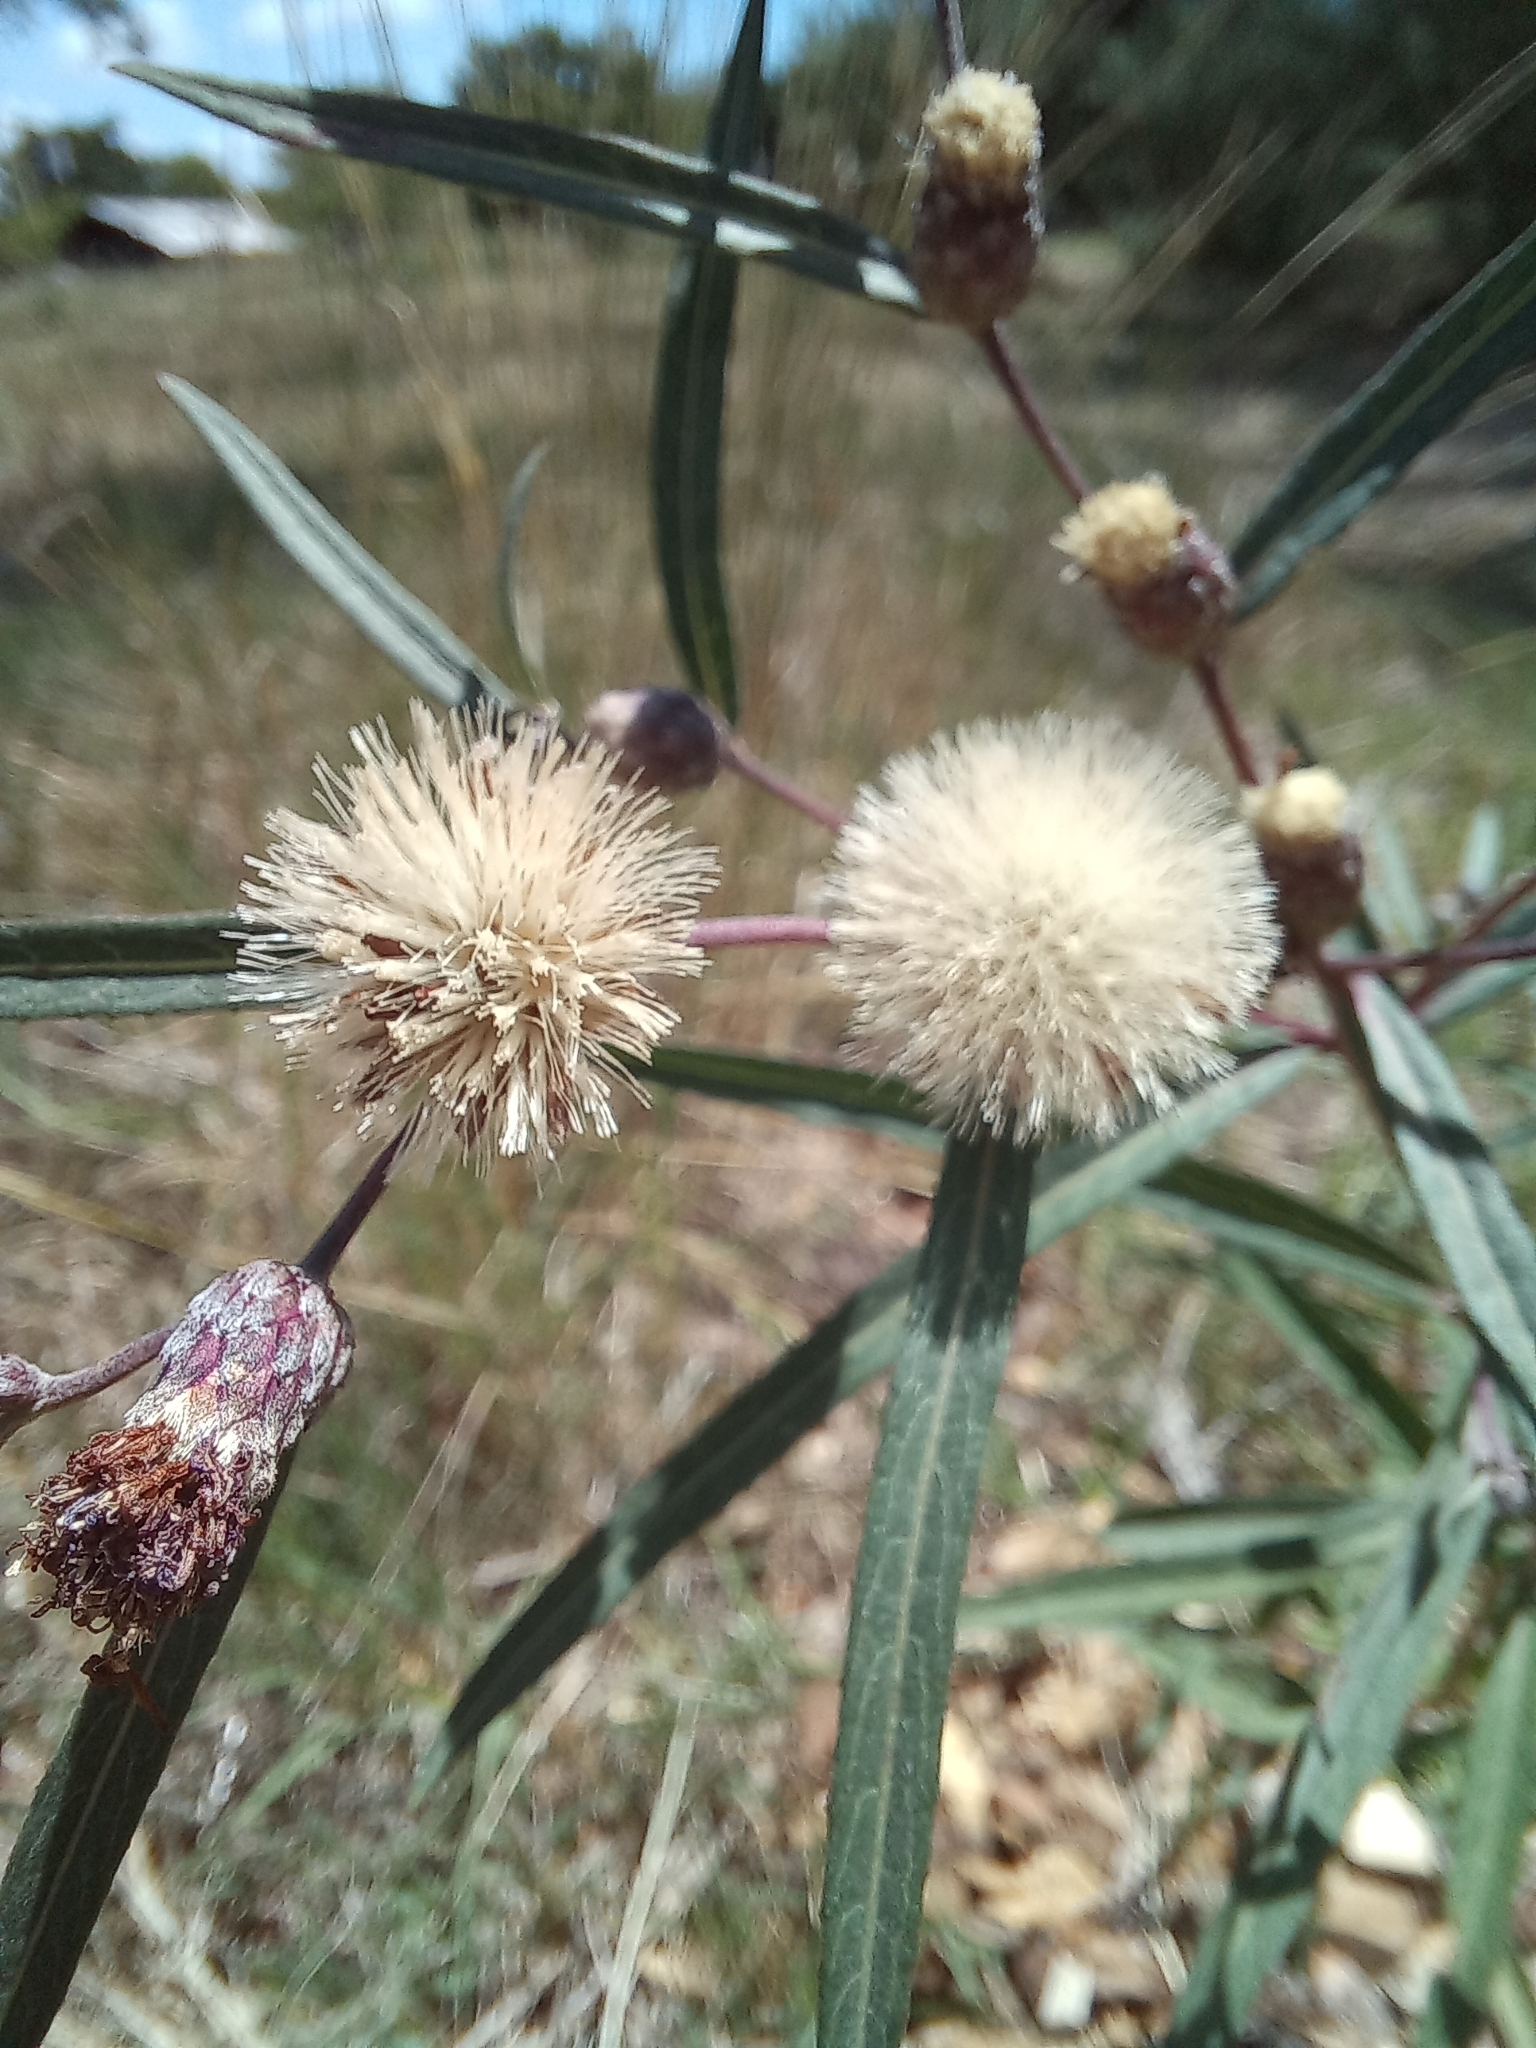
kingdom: Plantae
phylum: Tracheophyta
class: Magnoliopsida
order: Asterales
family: Asteraceae
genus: Lessingianthus
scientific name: Lessingianthus rubricaulis
